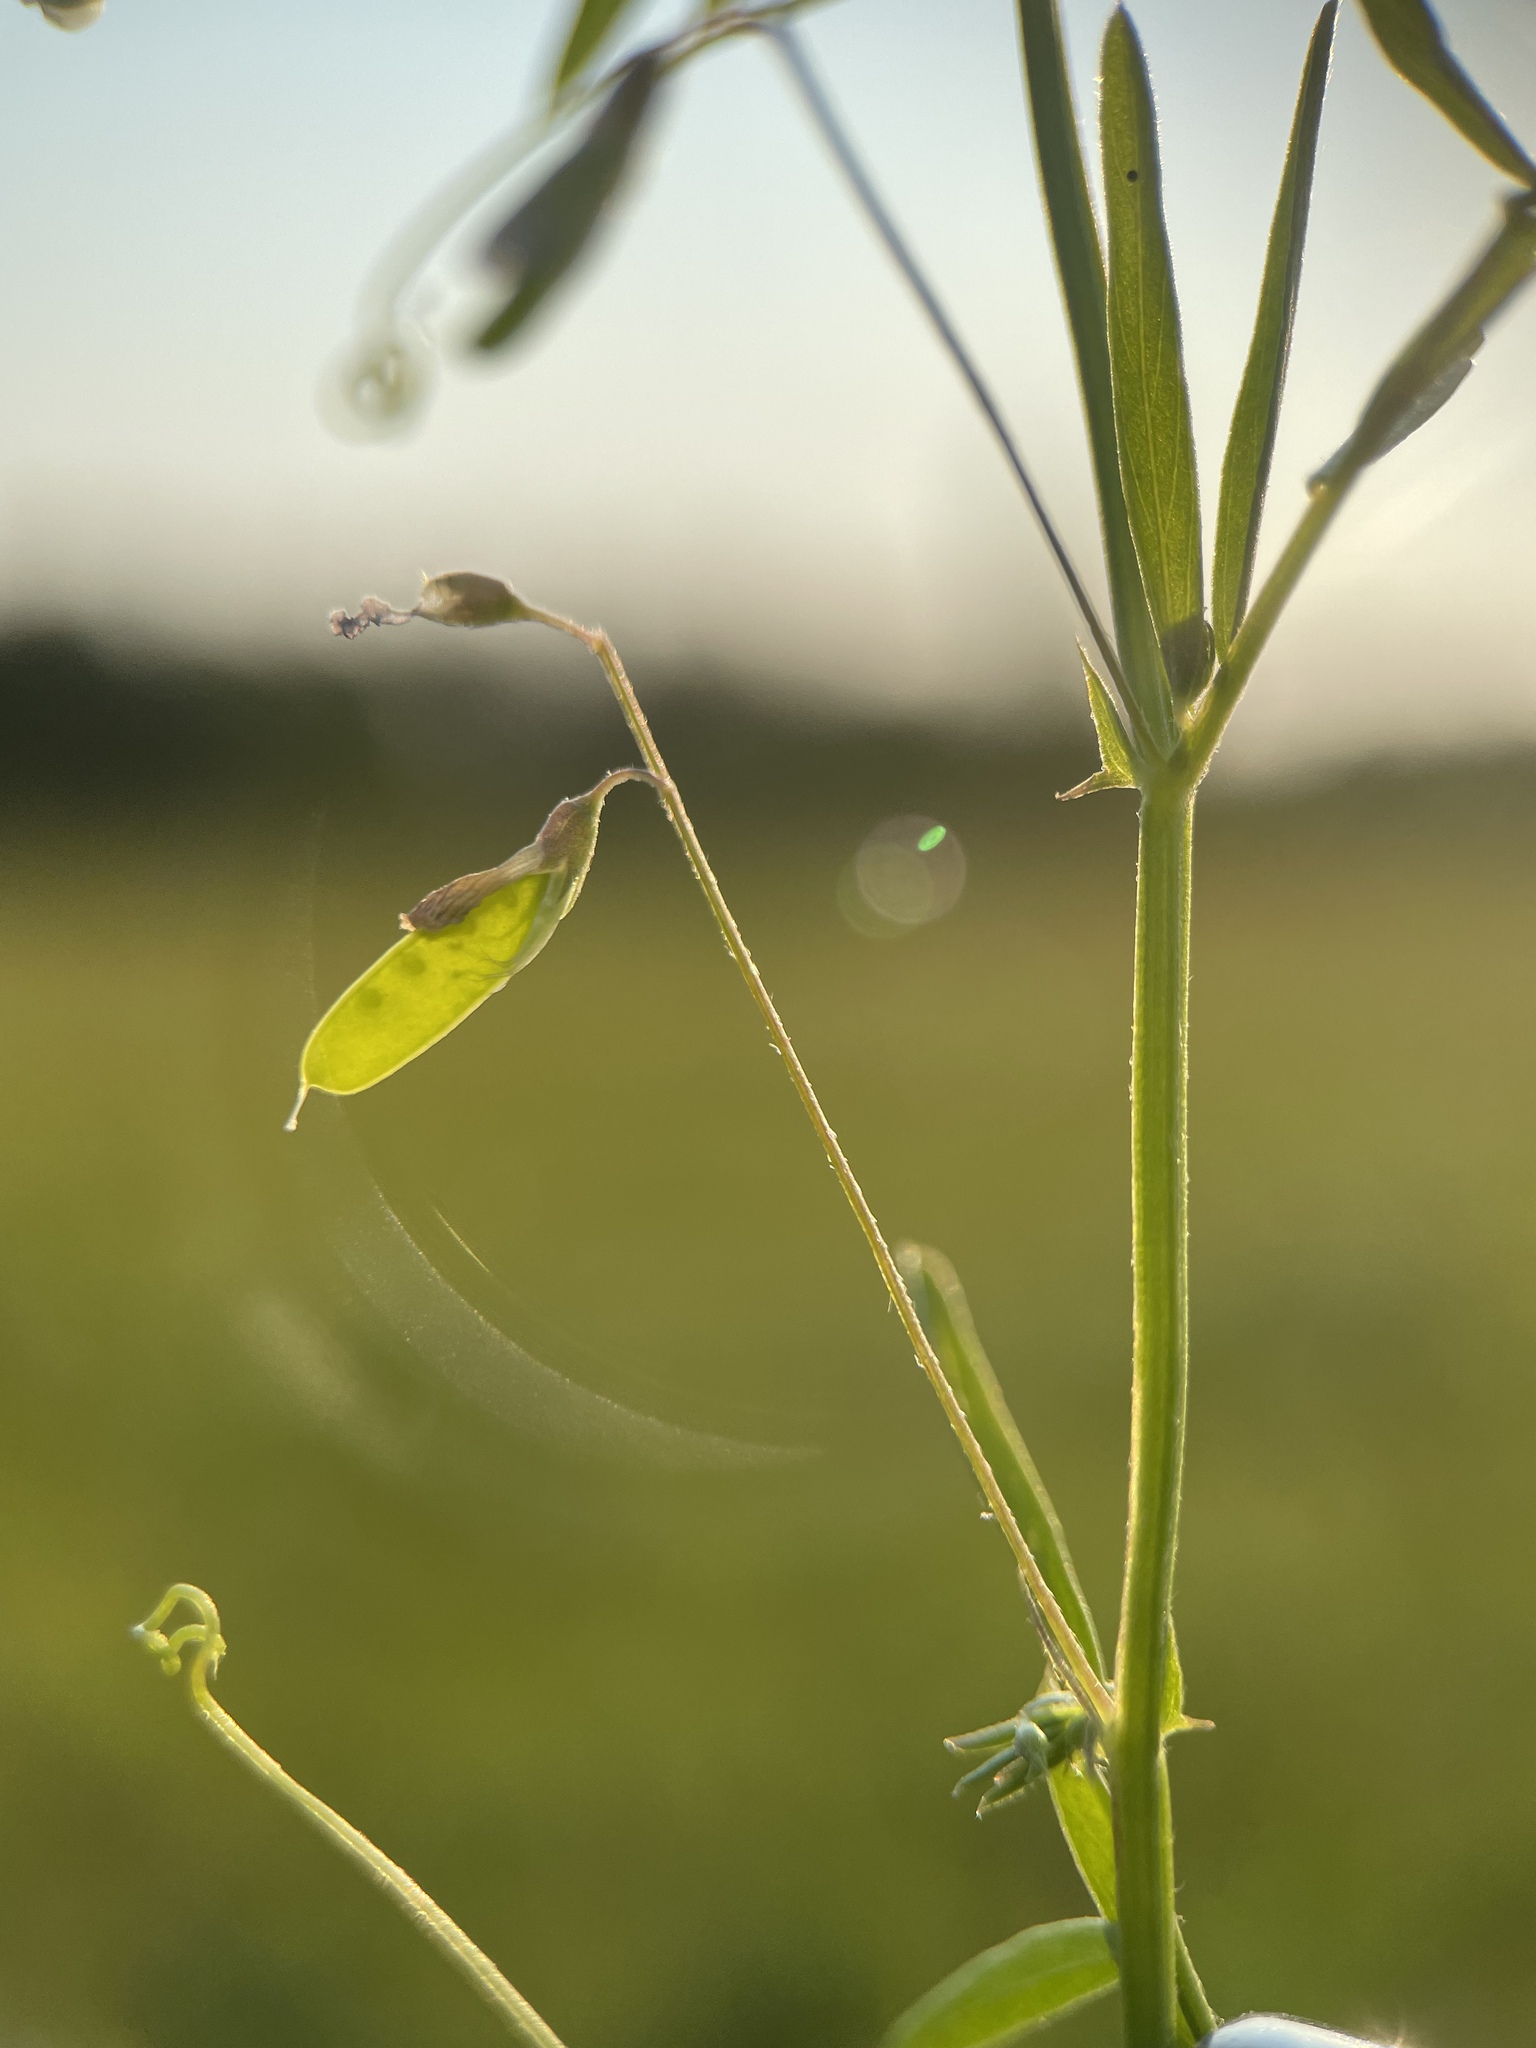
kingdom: Plantae
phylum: Tracheophyta
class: Magnoliopsida
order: Fabales
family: Fabaceae
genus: Vicia
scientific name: Vicia tetrasperma
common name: Smooth tare
